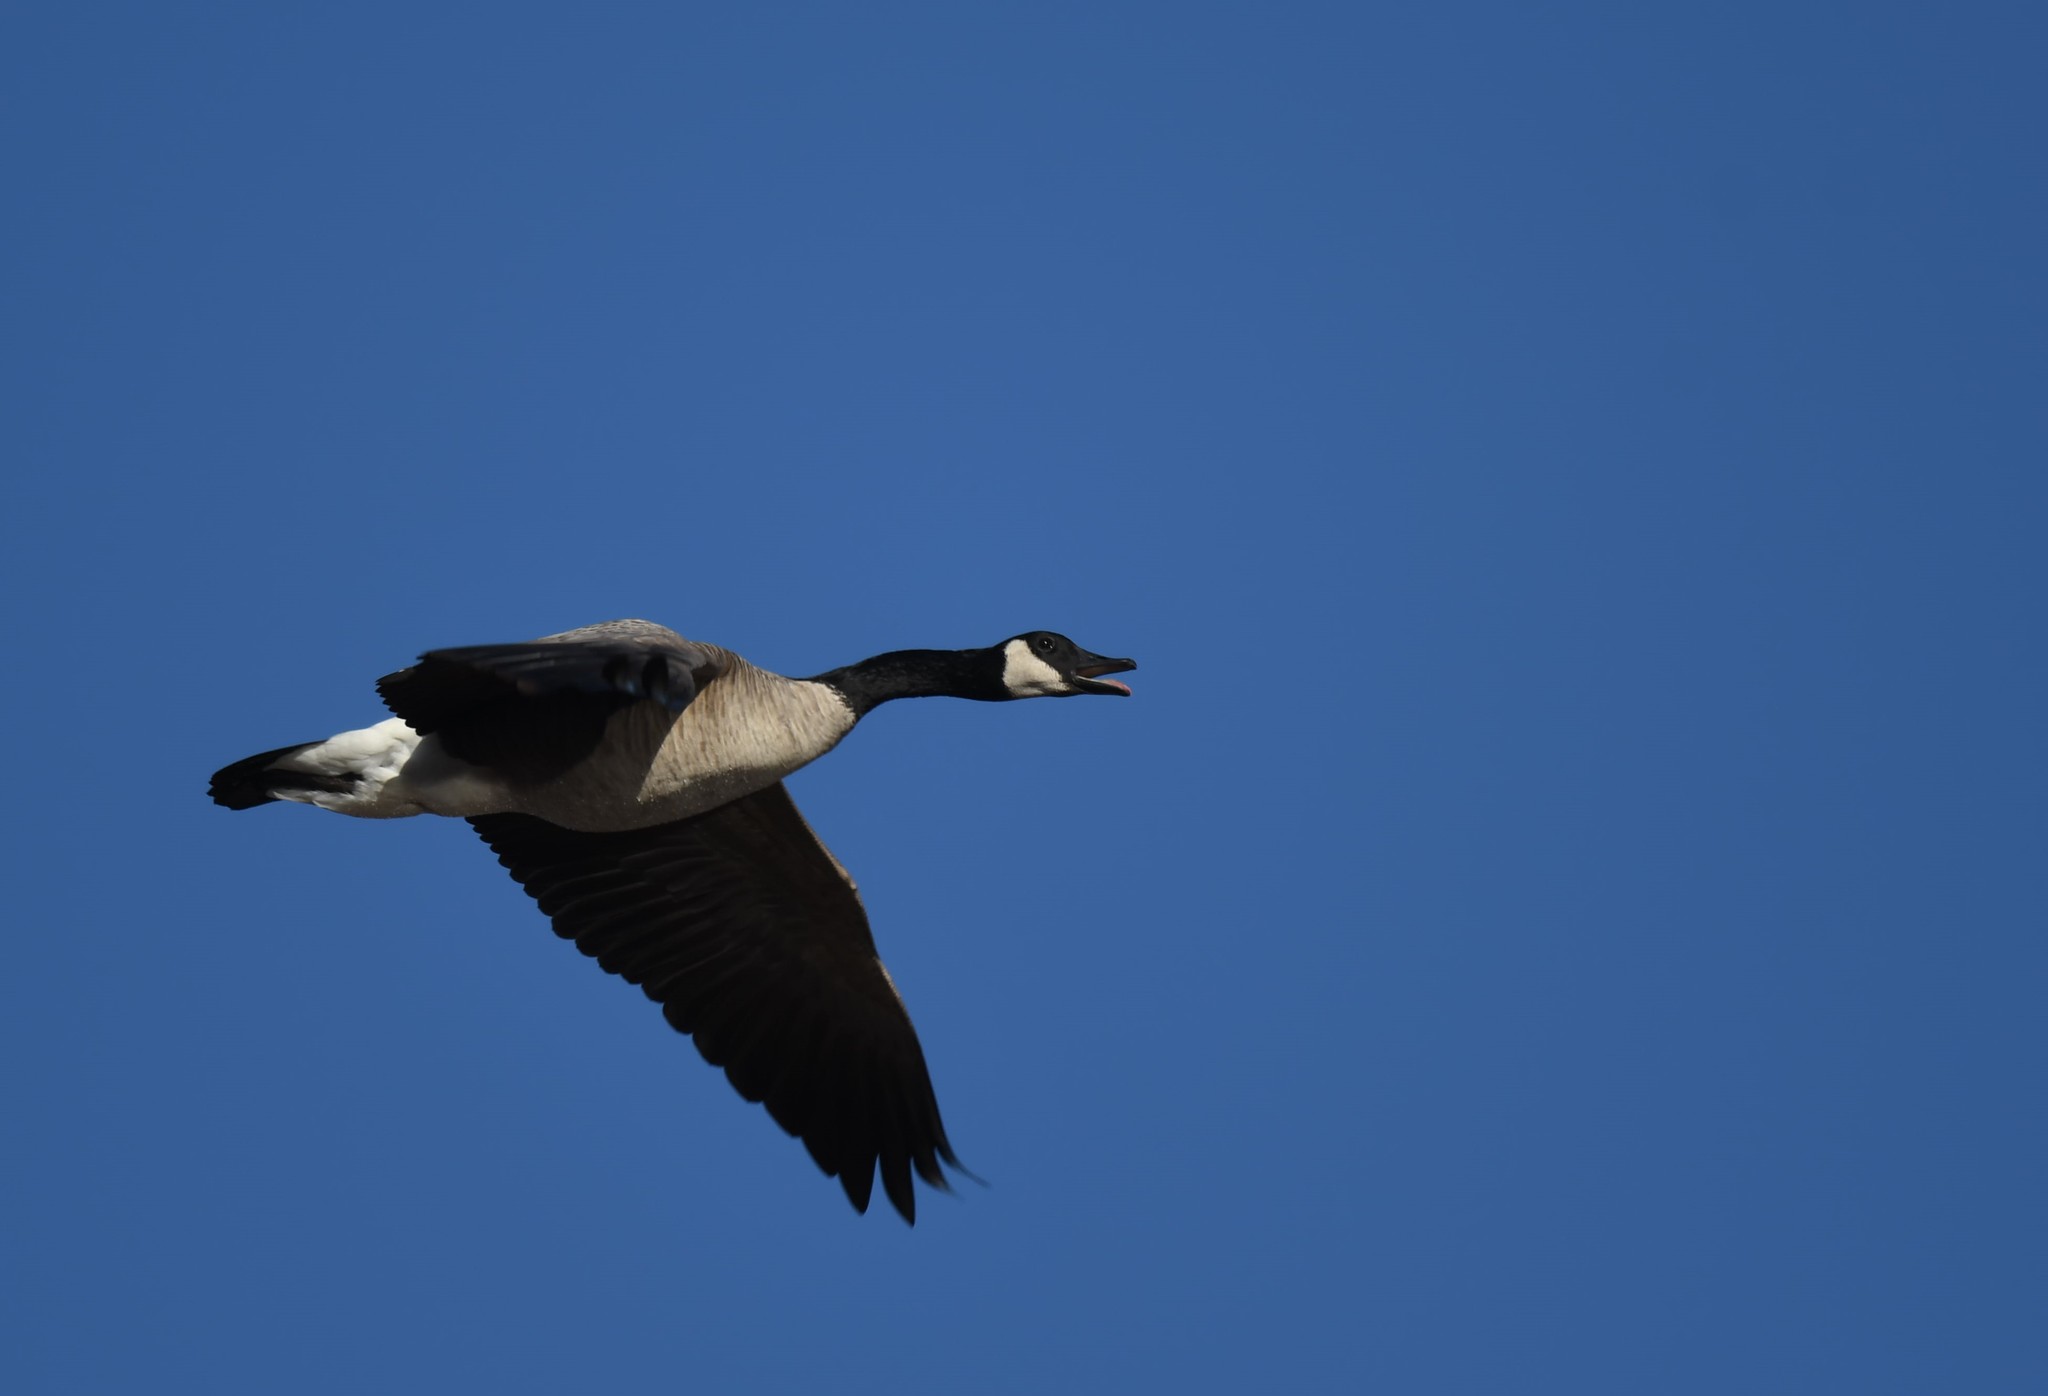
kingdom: Animalia
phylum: Chordata
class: Aves
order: Anseriformes
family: Anatidae
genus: Branta
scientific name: Branta canadensis
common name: Canada goose
